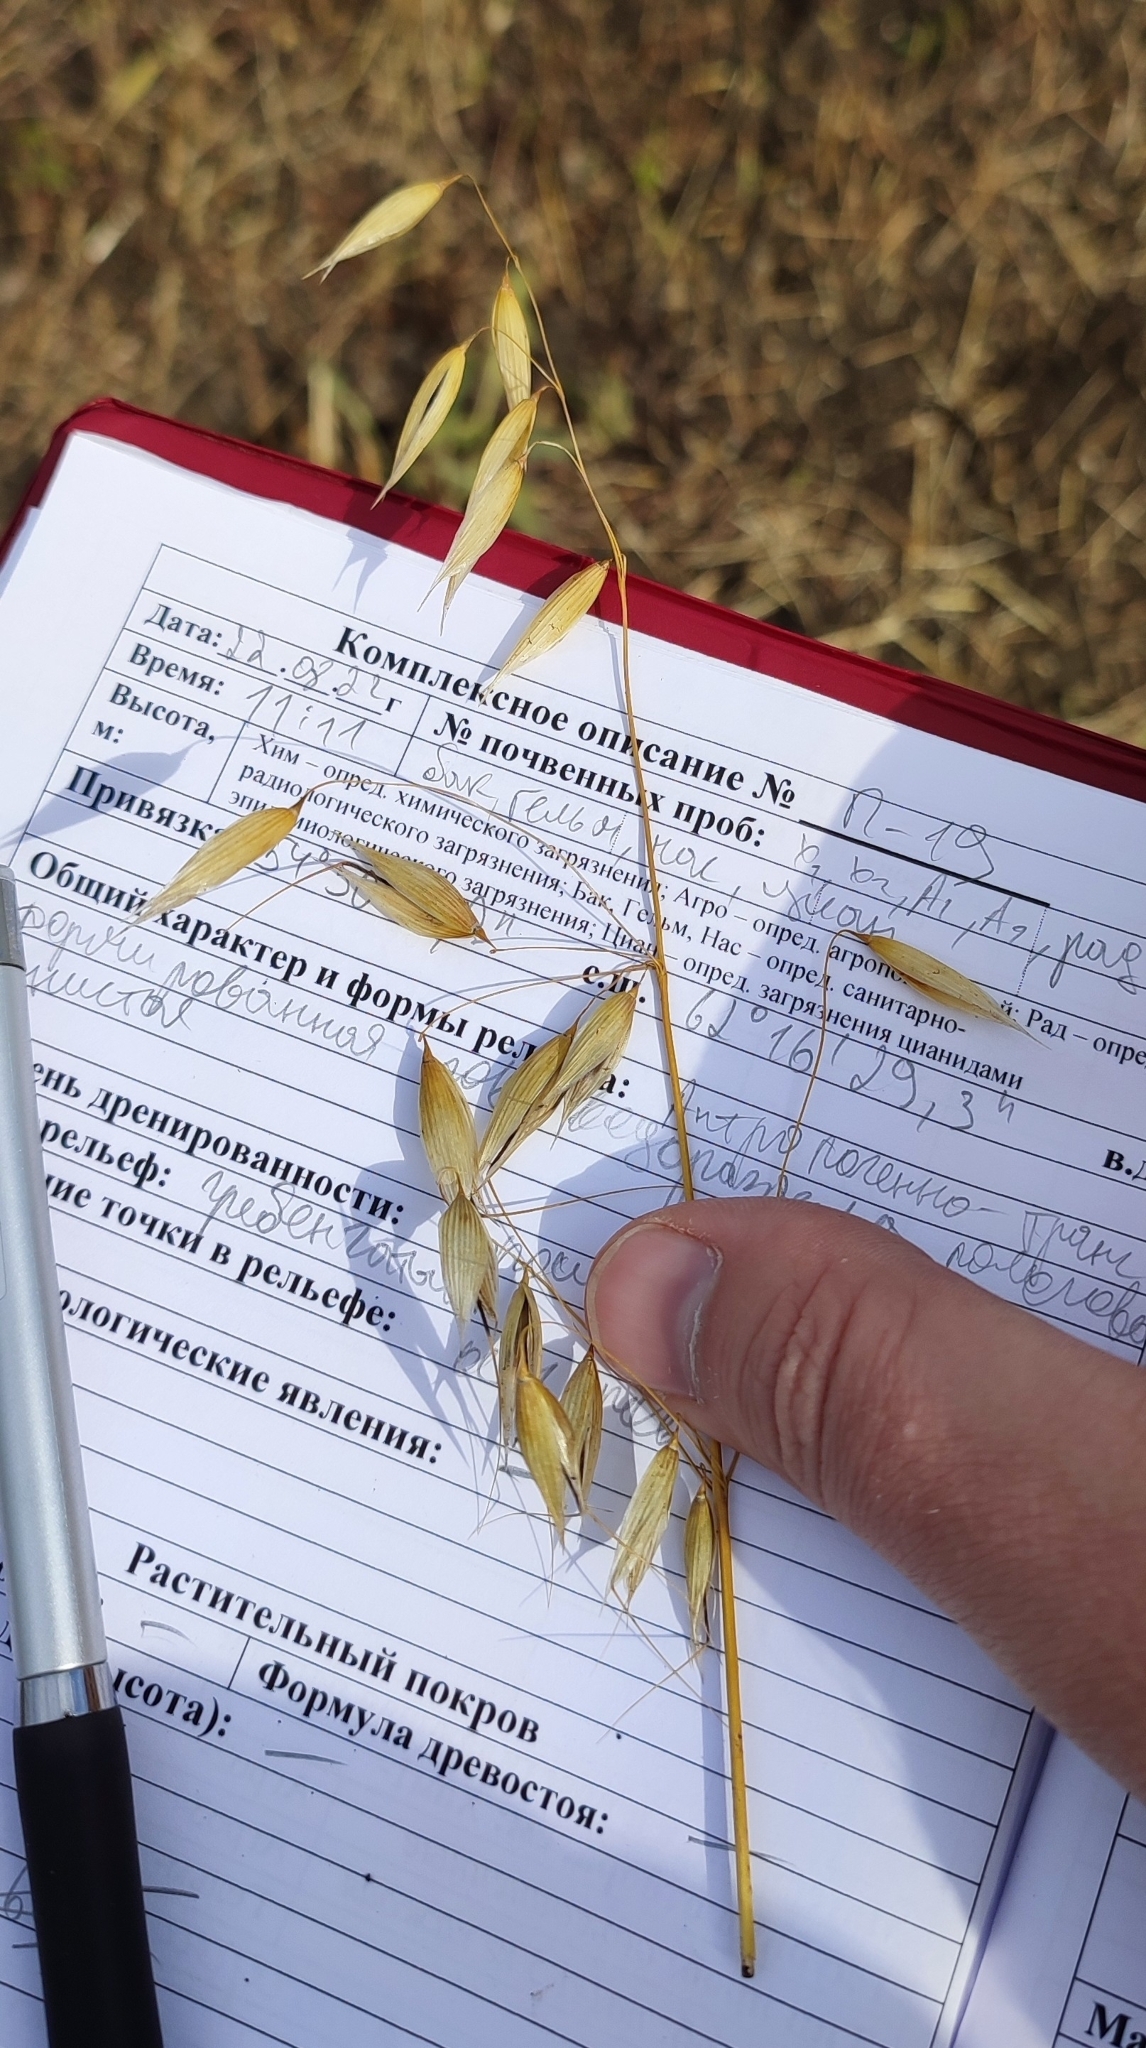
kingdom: Plantae
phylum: Tracheophyta
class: Liliopsida
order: Poales
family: Poaceae
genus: Avena
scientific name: Avena fatua
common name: Wild oat
